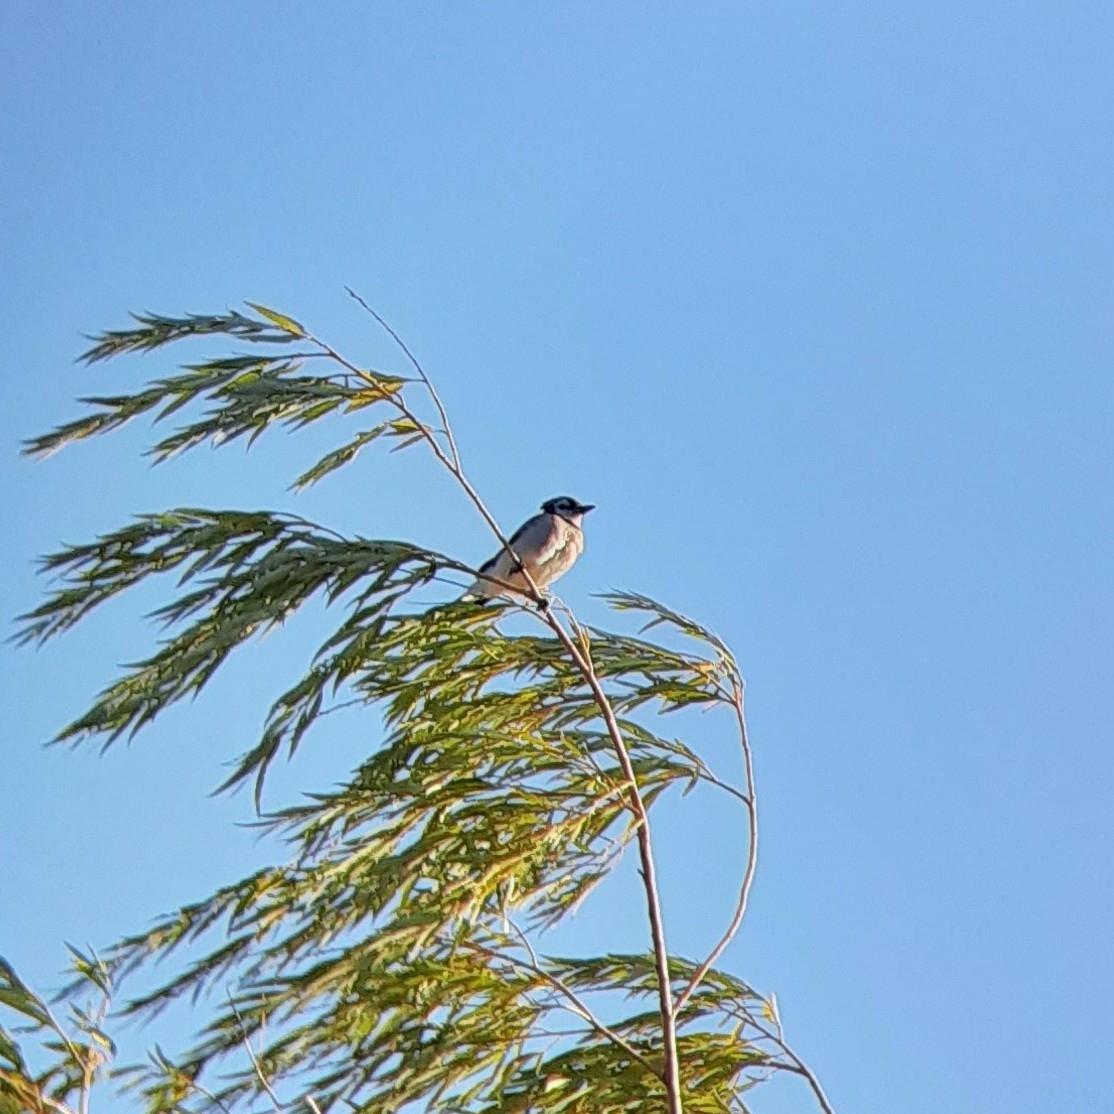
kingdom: Animalia
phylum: Chordata
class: Aves
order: Passeriformes
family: Corvidae
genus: Cyanocitta
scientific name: Cyanocitta cristata
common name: Blue jay
